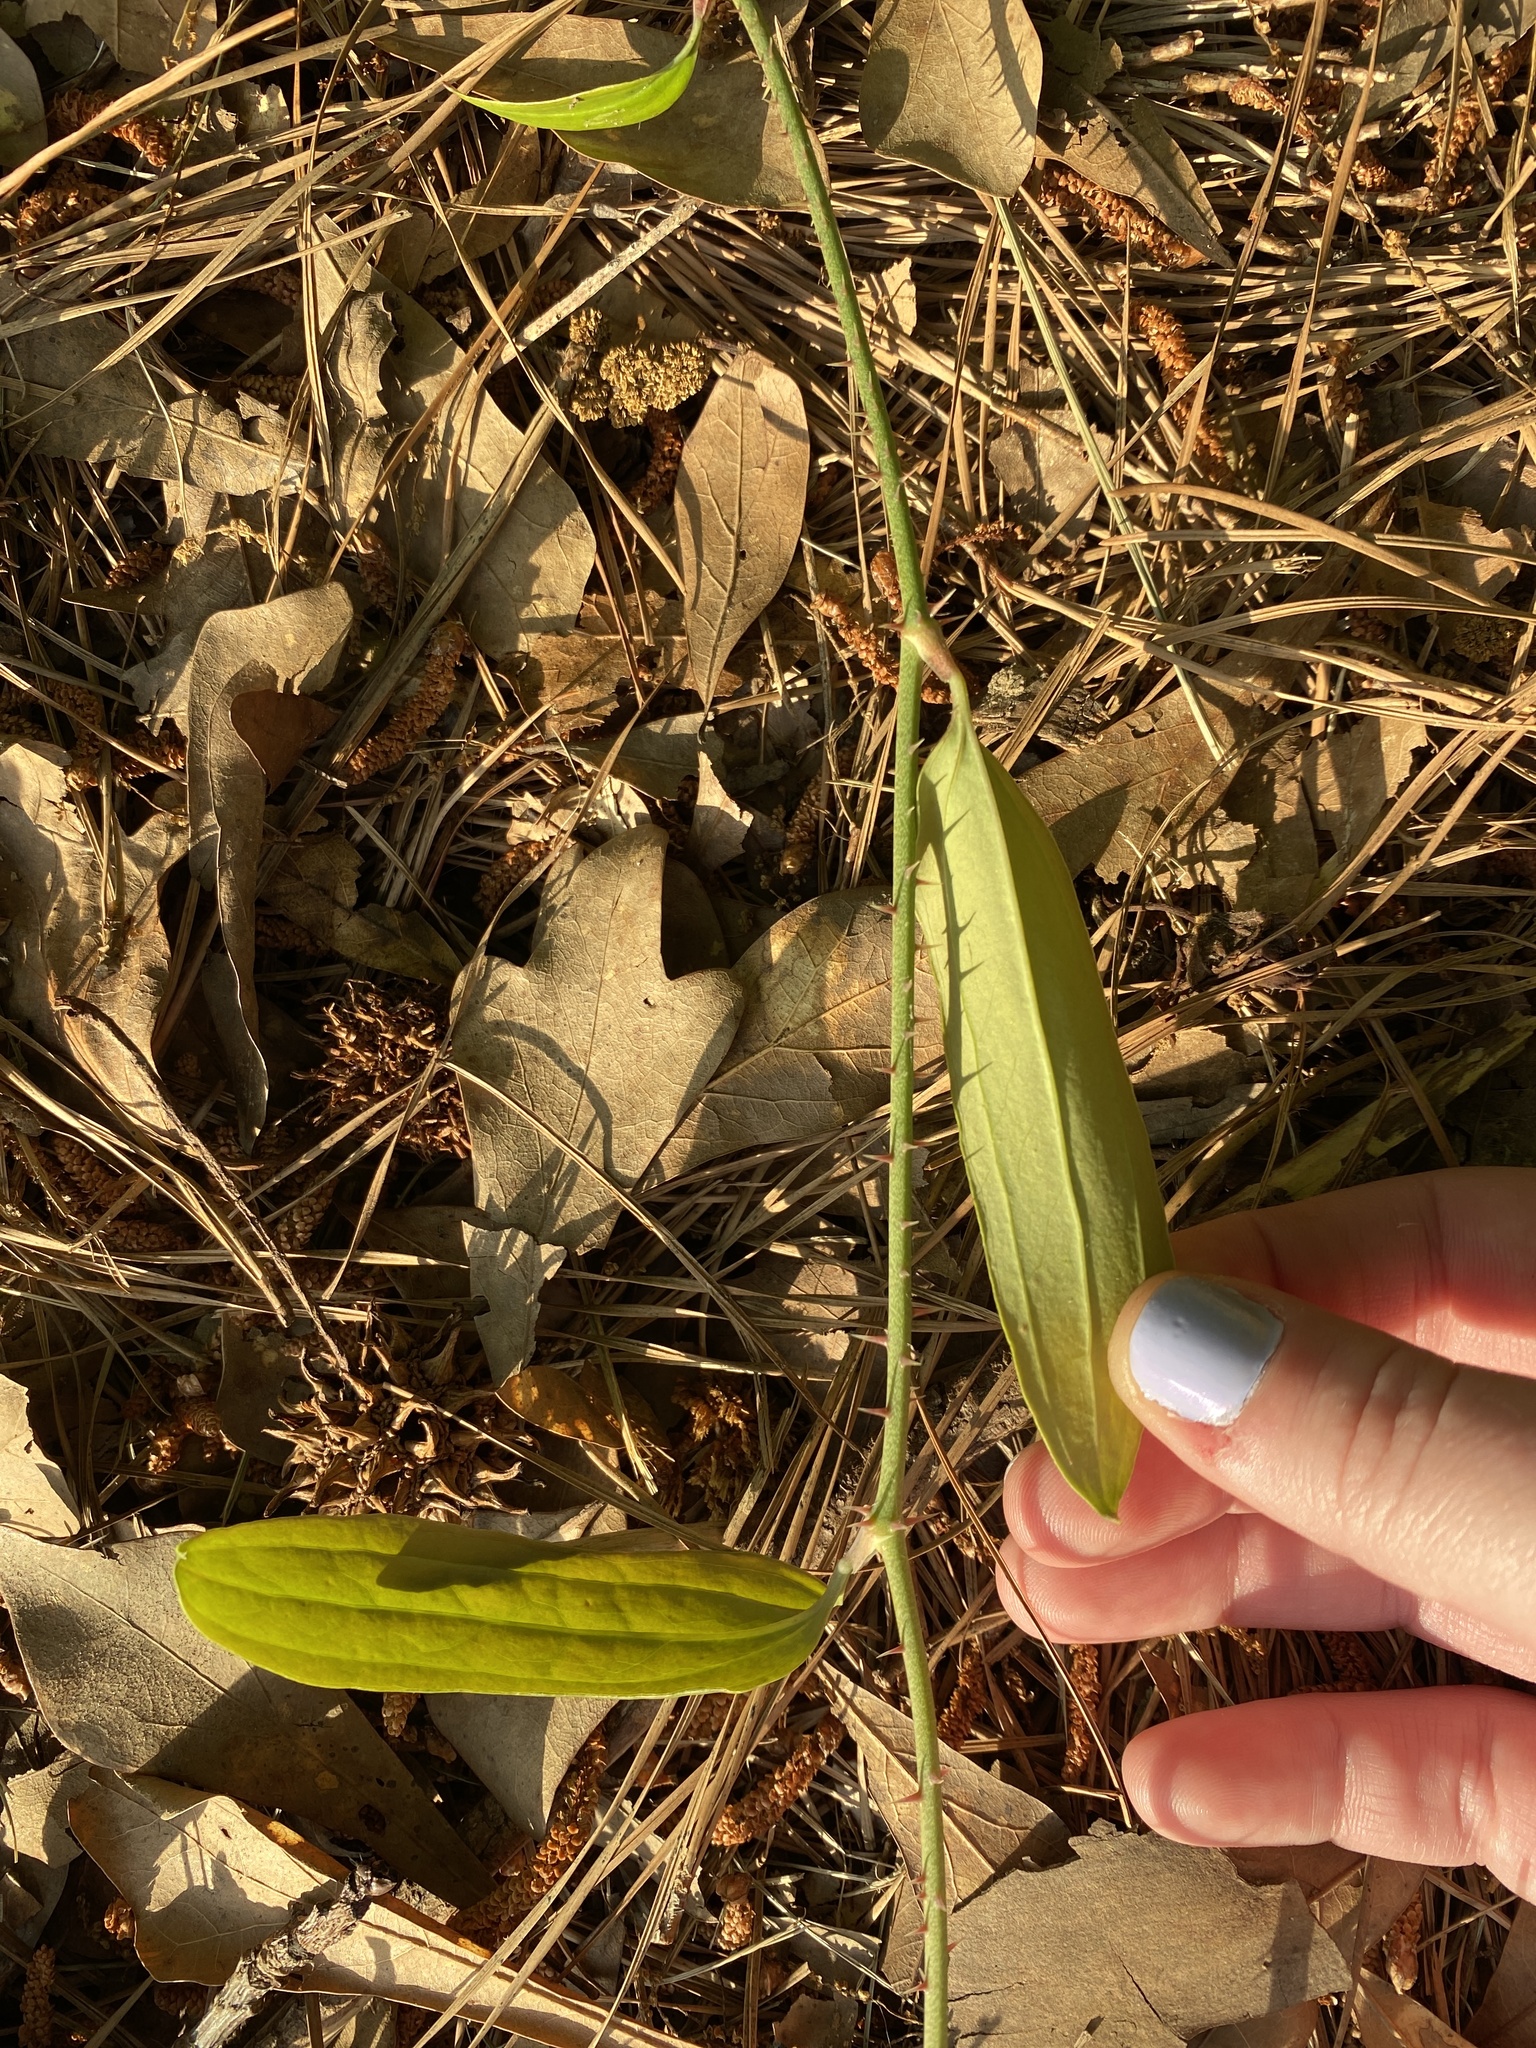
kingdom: Plantae
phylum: Tracheophyta
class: Liliopsida
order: Liliales
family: Smilacaceae
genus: Smilax
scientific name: Smilax glauca
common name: Cat greenbrier
